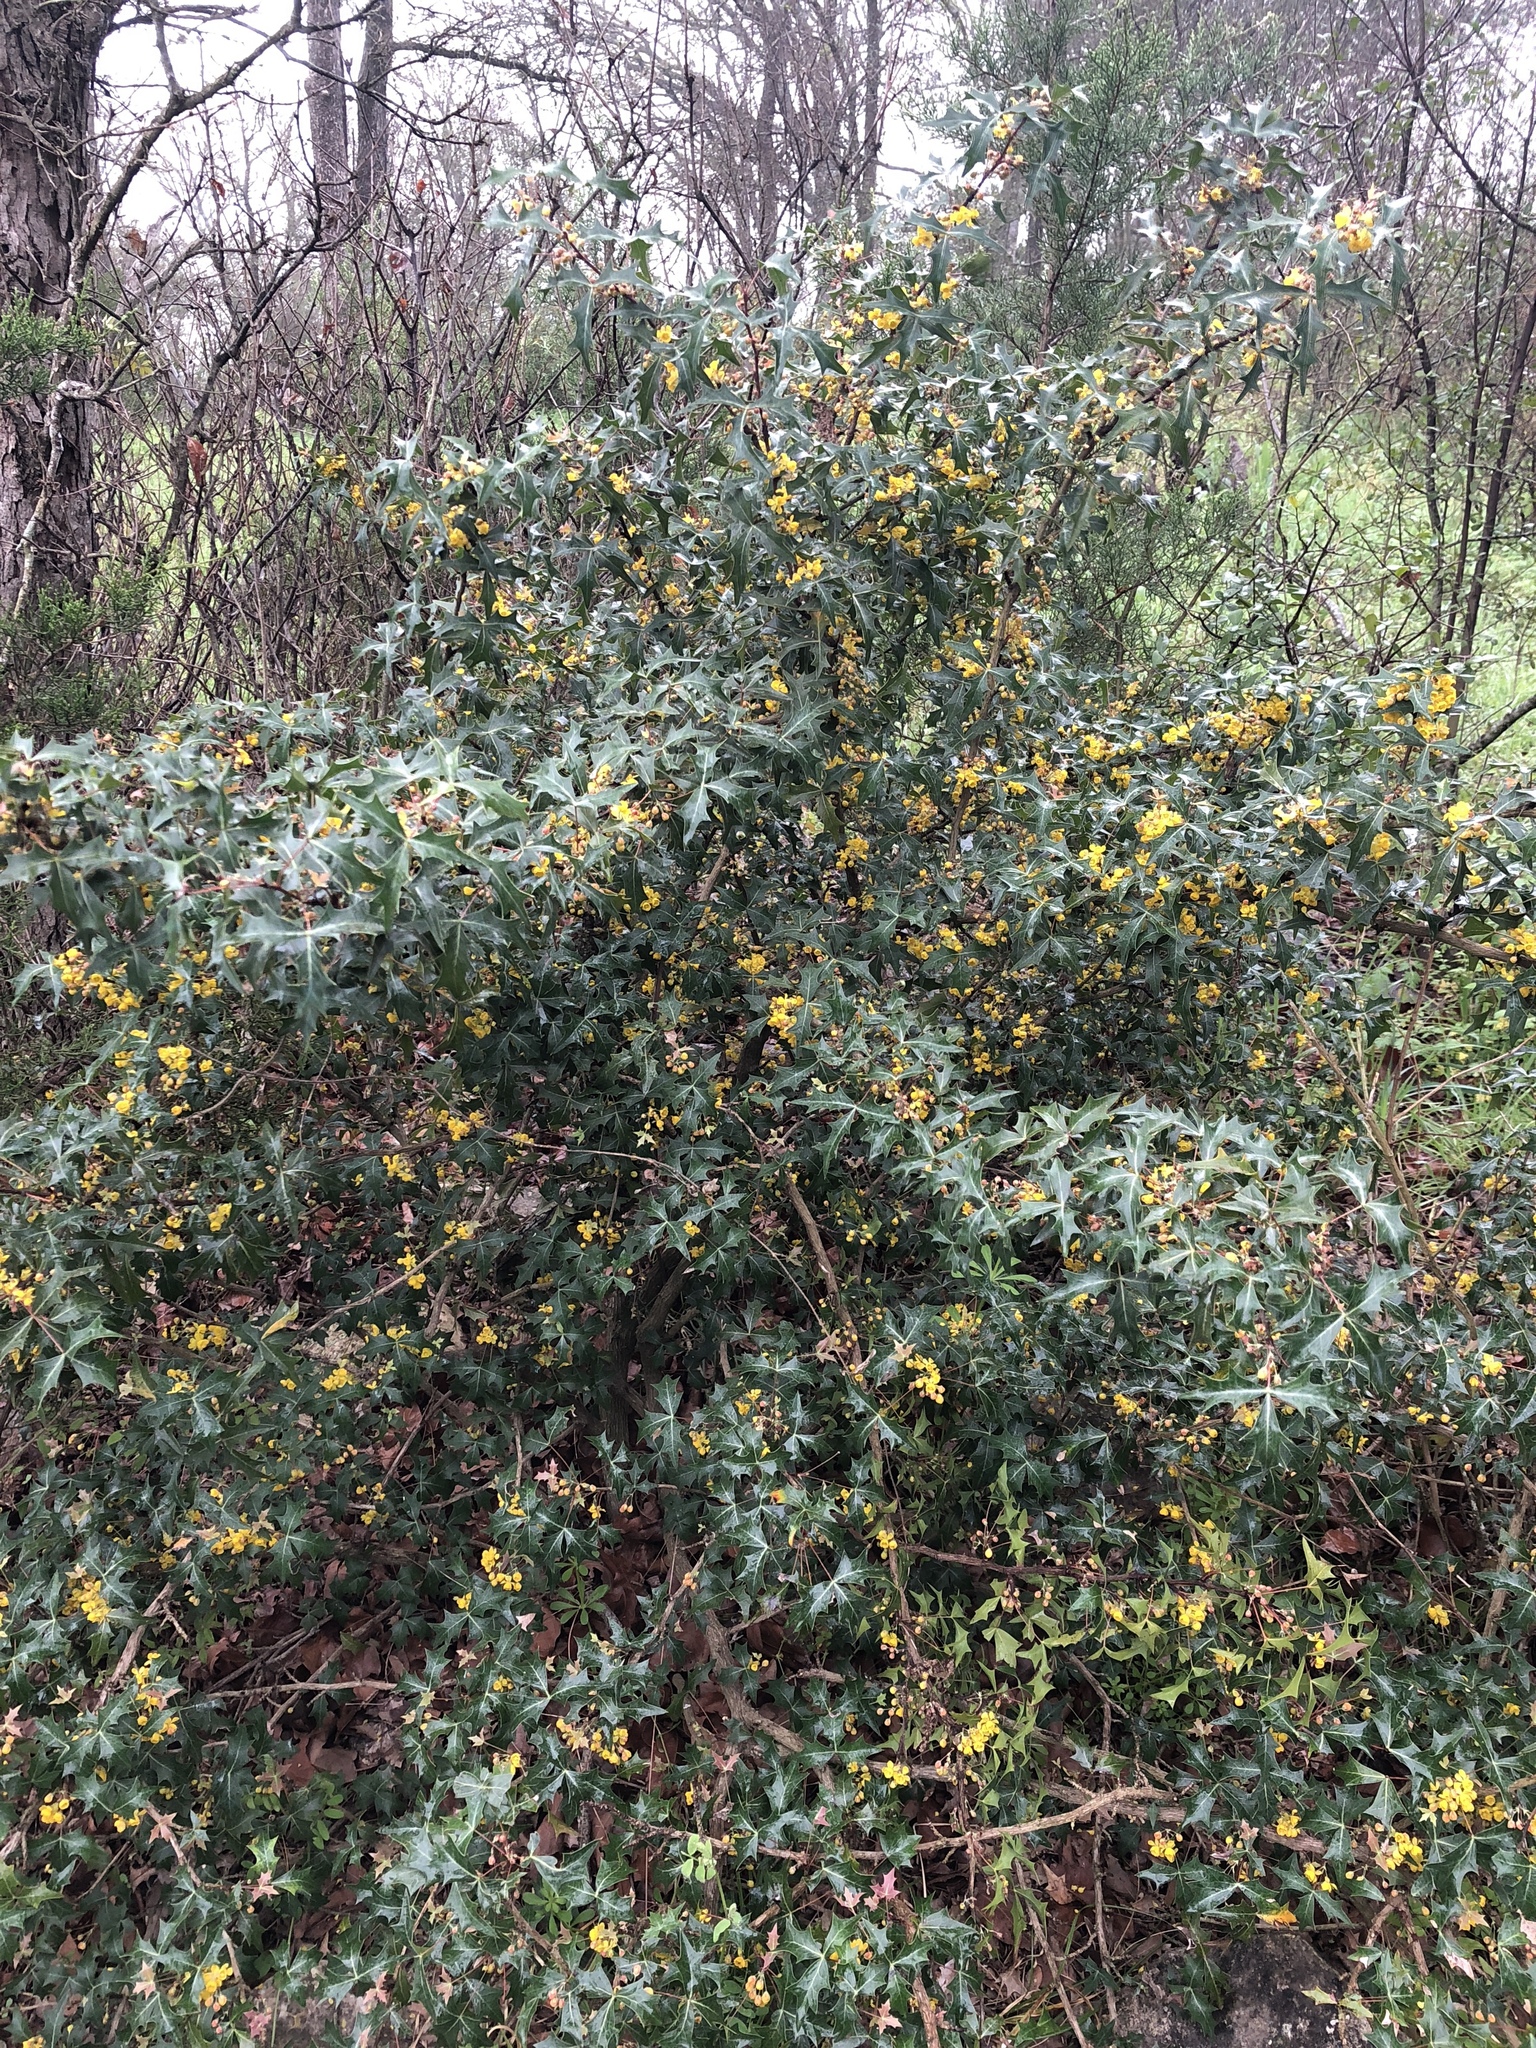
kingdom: Plantae
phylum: Tracheophyta
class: Magnoliopsida
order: Ranunculales
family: Berberidaceae
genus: Alloberberis
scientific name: Alloberberis trifoliolata
